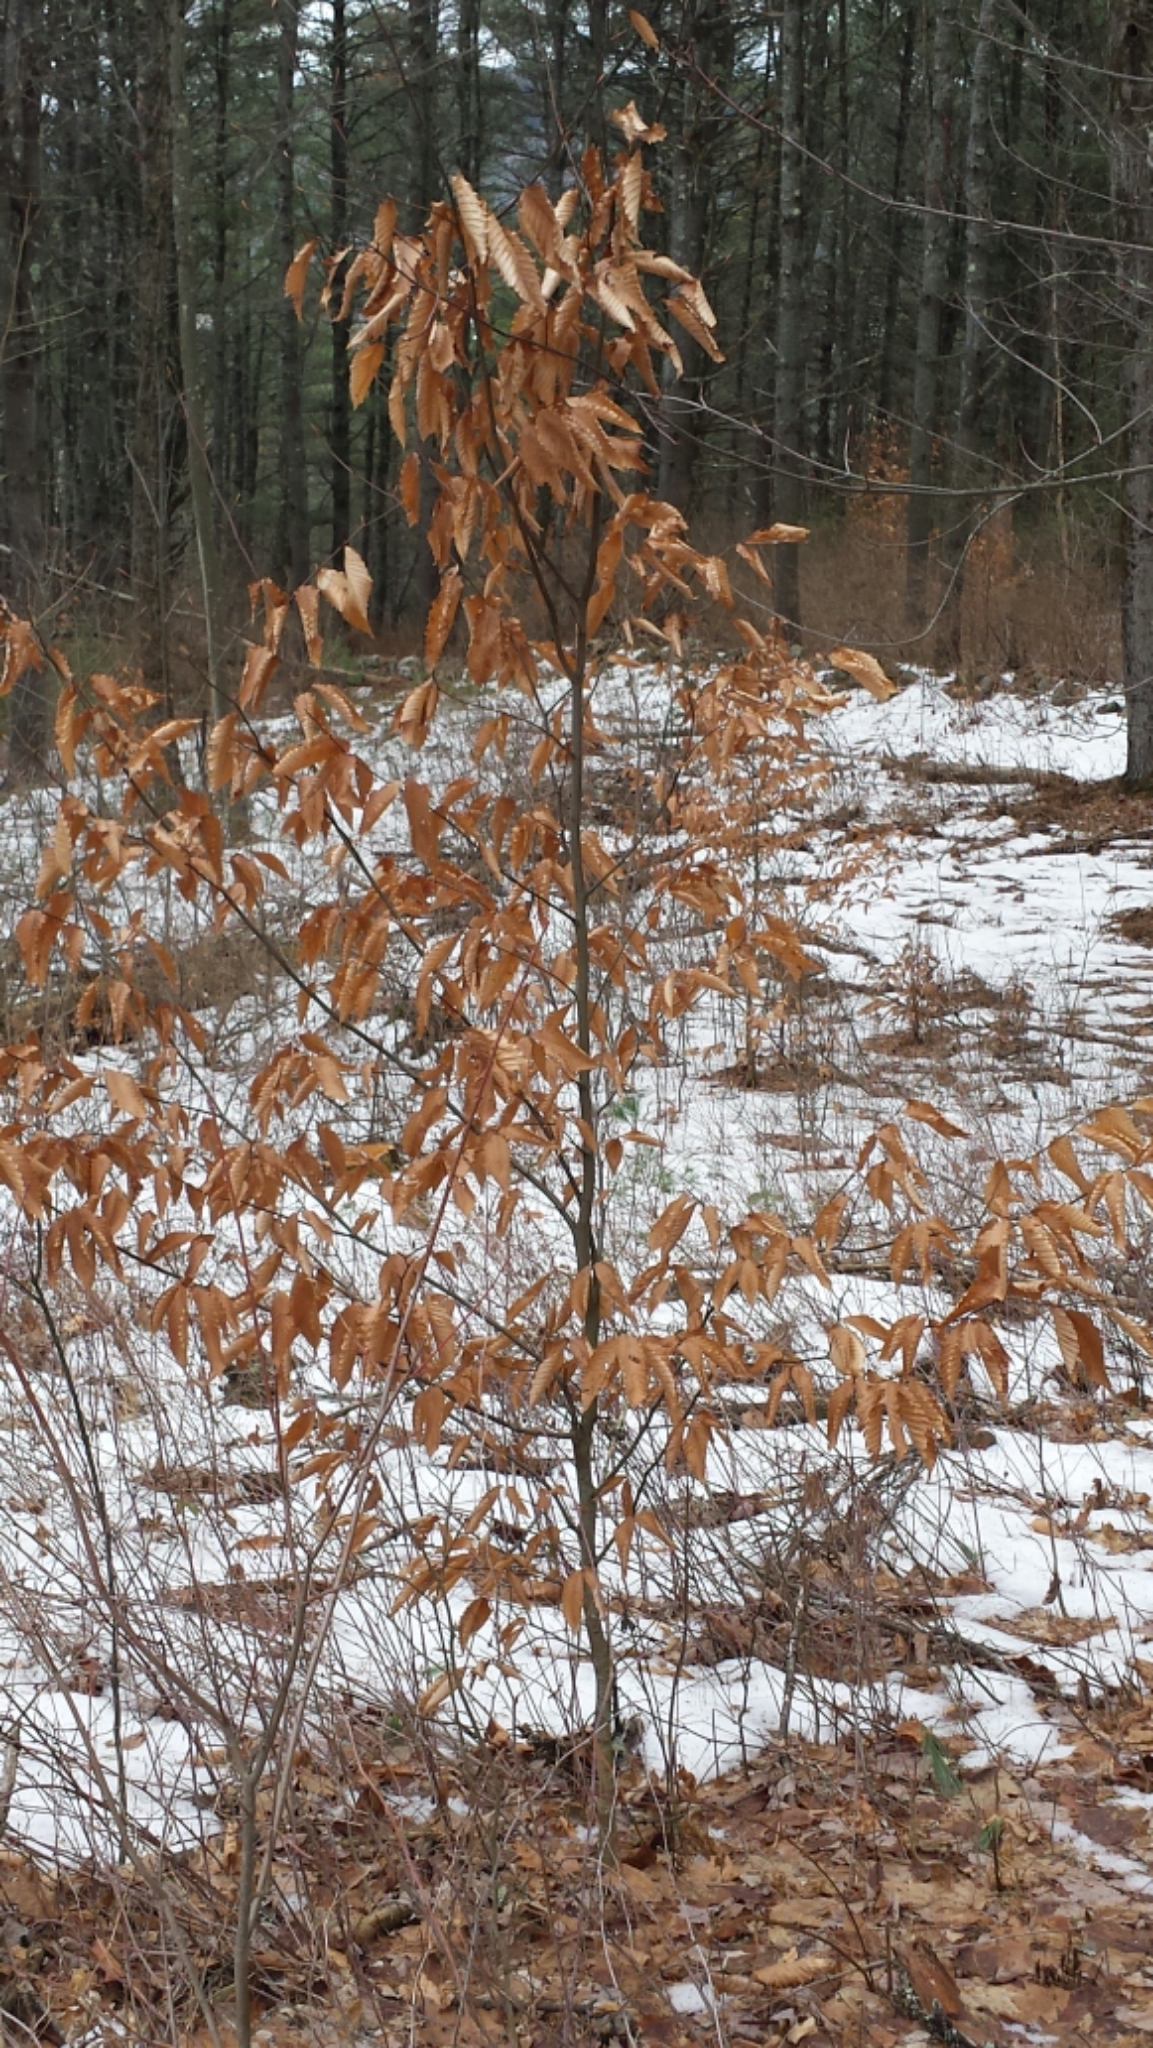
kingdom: Plantae
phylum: Tracheophyta
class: Magnoliopsida
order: Fagales
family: Fagaceae
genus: Fagus
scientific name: Fagus grandifolia
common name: American beech
